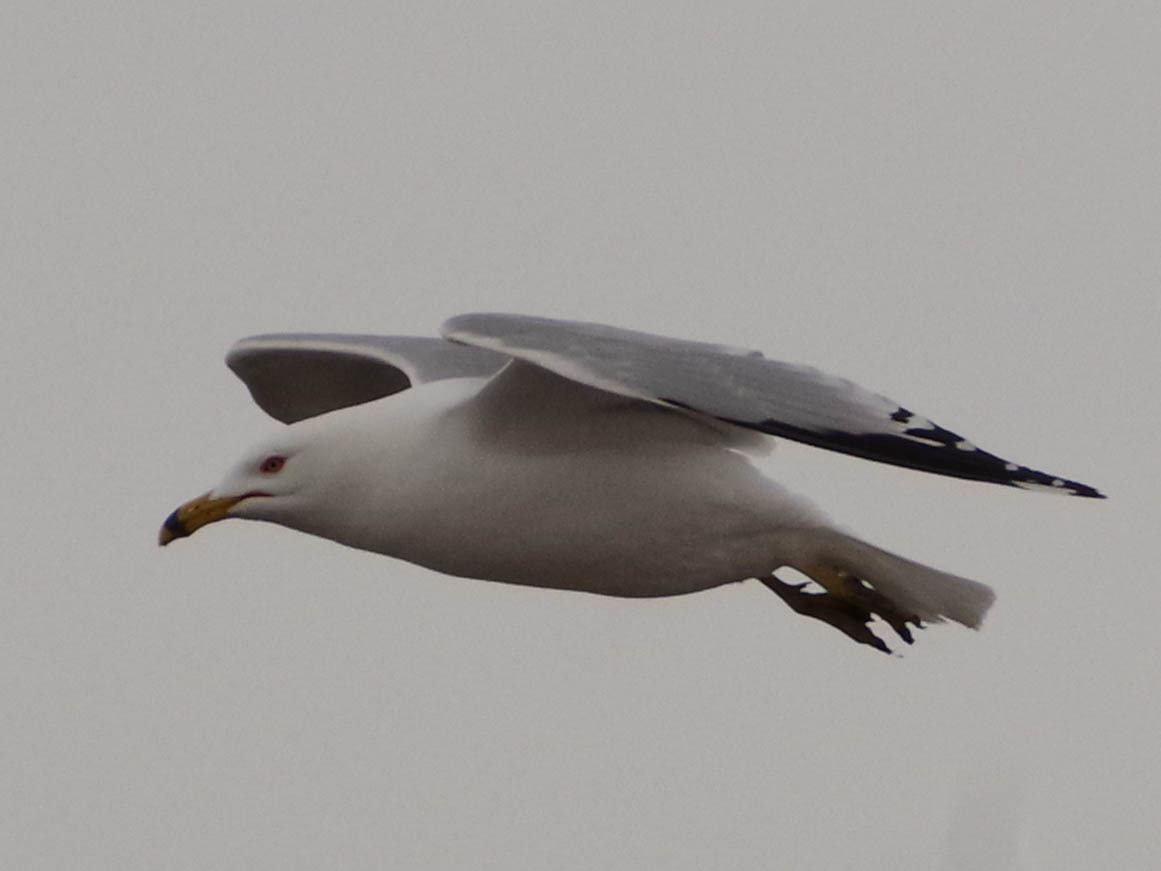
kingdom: Animalia
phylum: Chordata
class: Aves
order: Charadriiformes
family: Laridae
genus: Larus
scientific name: Larus delawarensis
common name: Ring-billed gull
